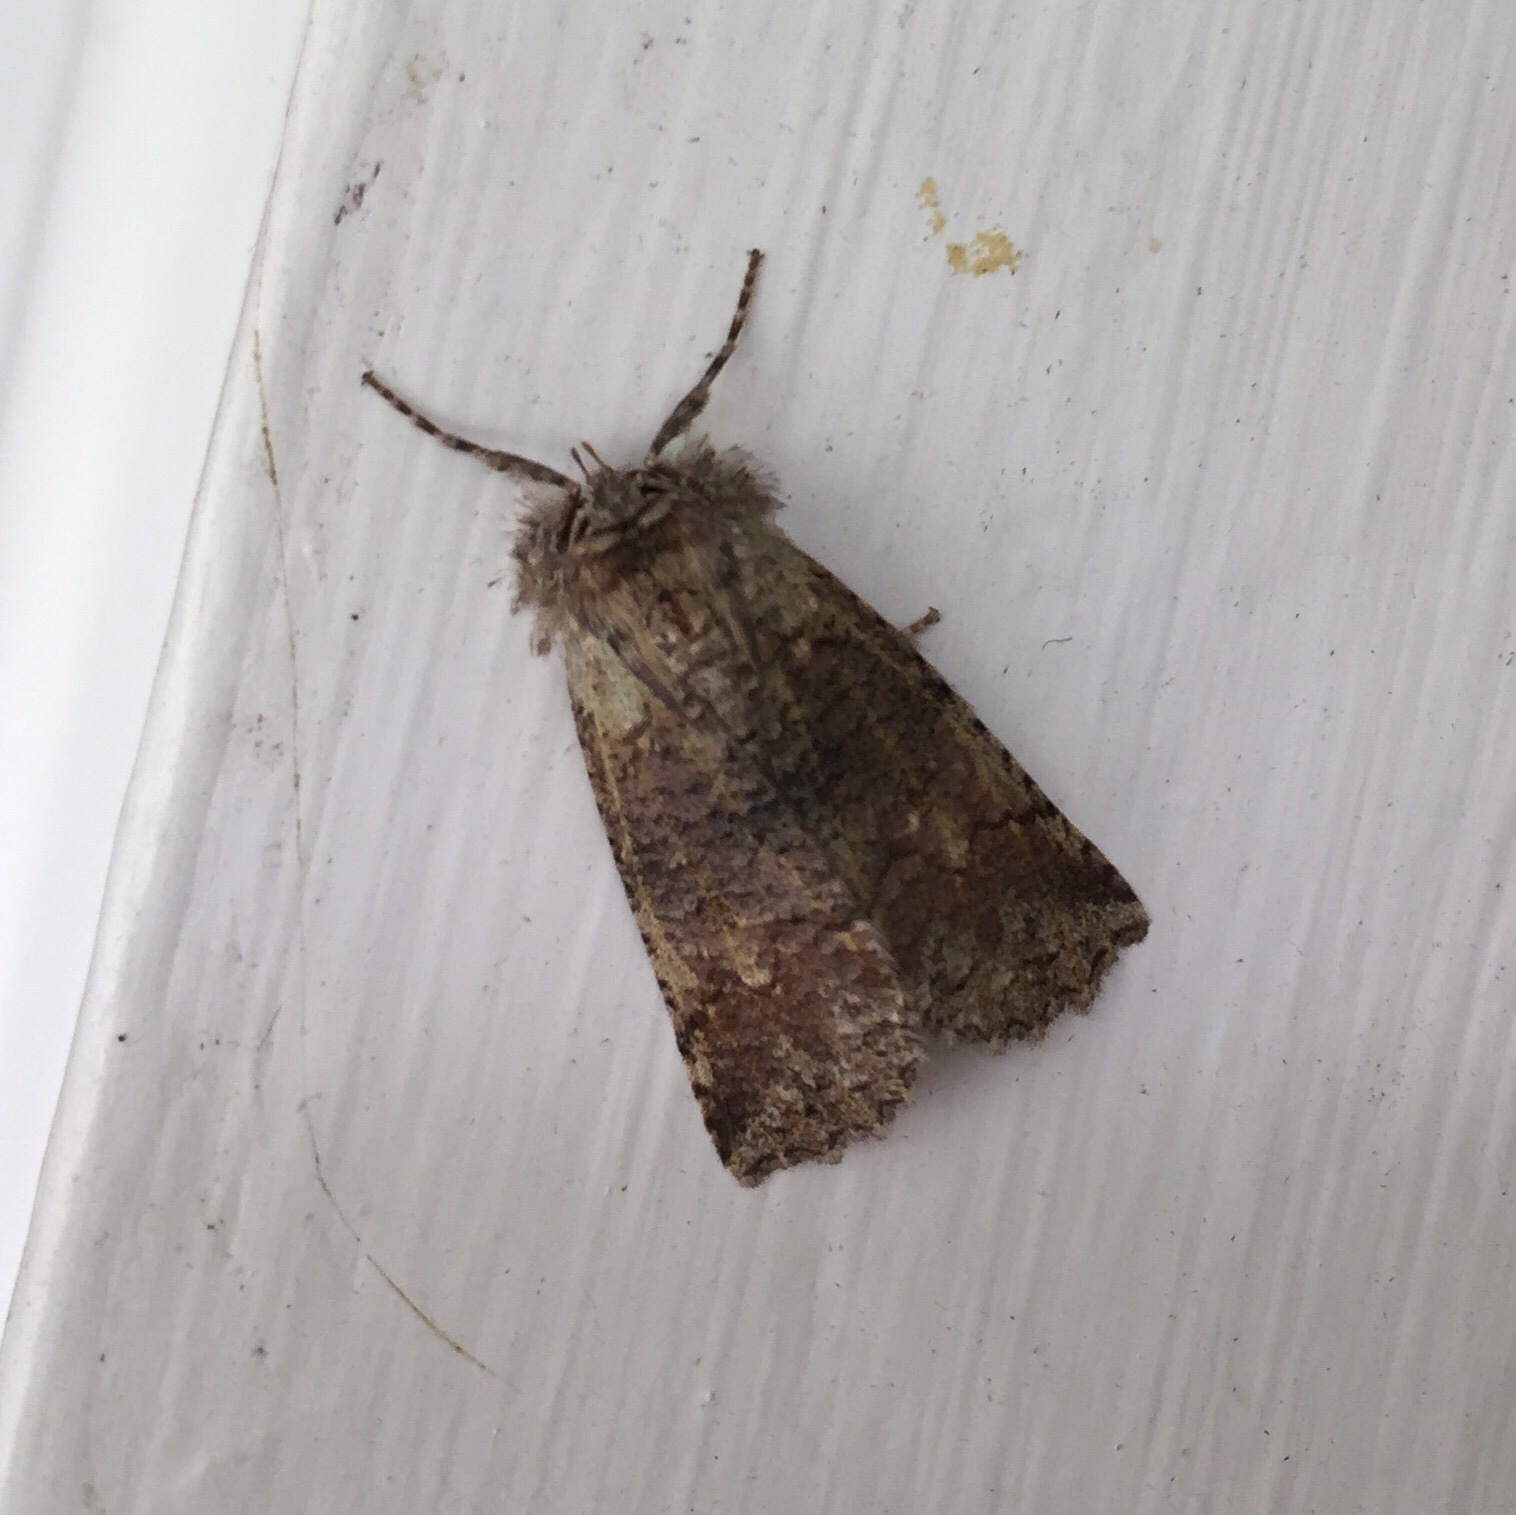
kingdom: Animalia
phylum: Arthropoda
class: Insecta
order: Lepidoptera
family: Geometridae
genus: Declana
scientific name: Declana floccosa
